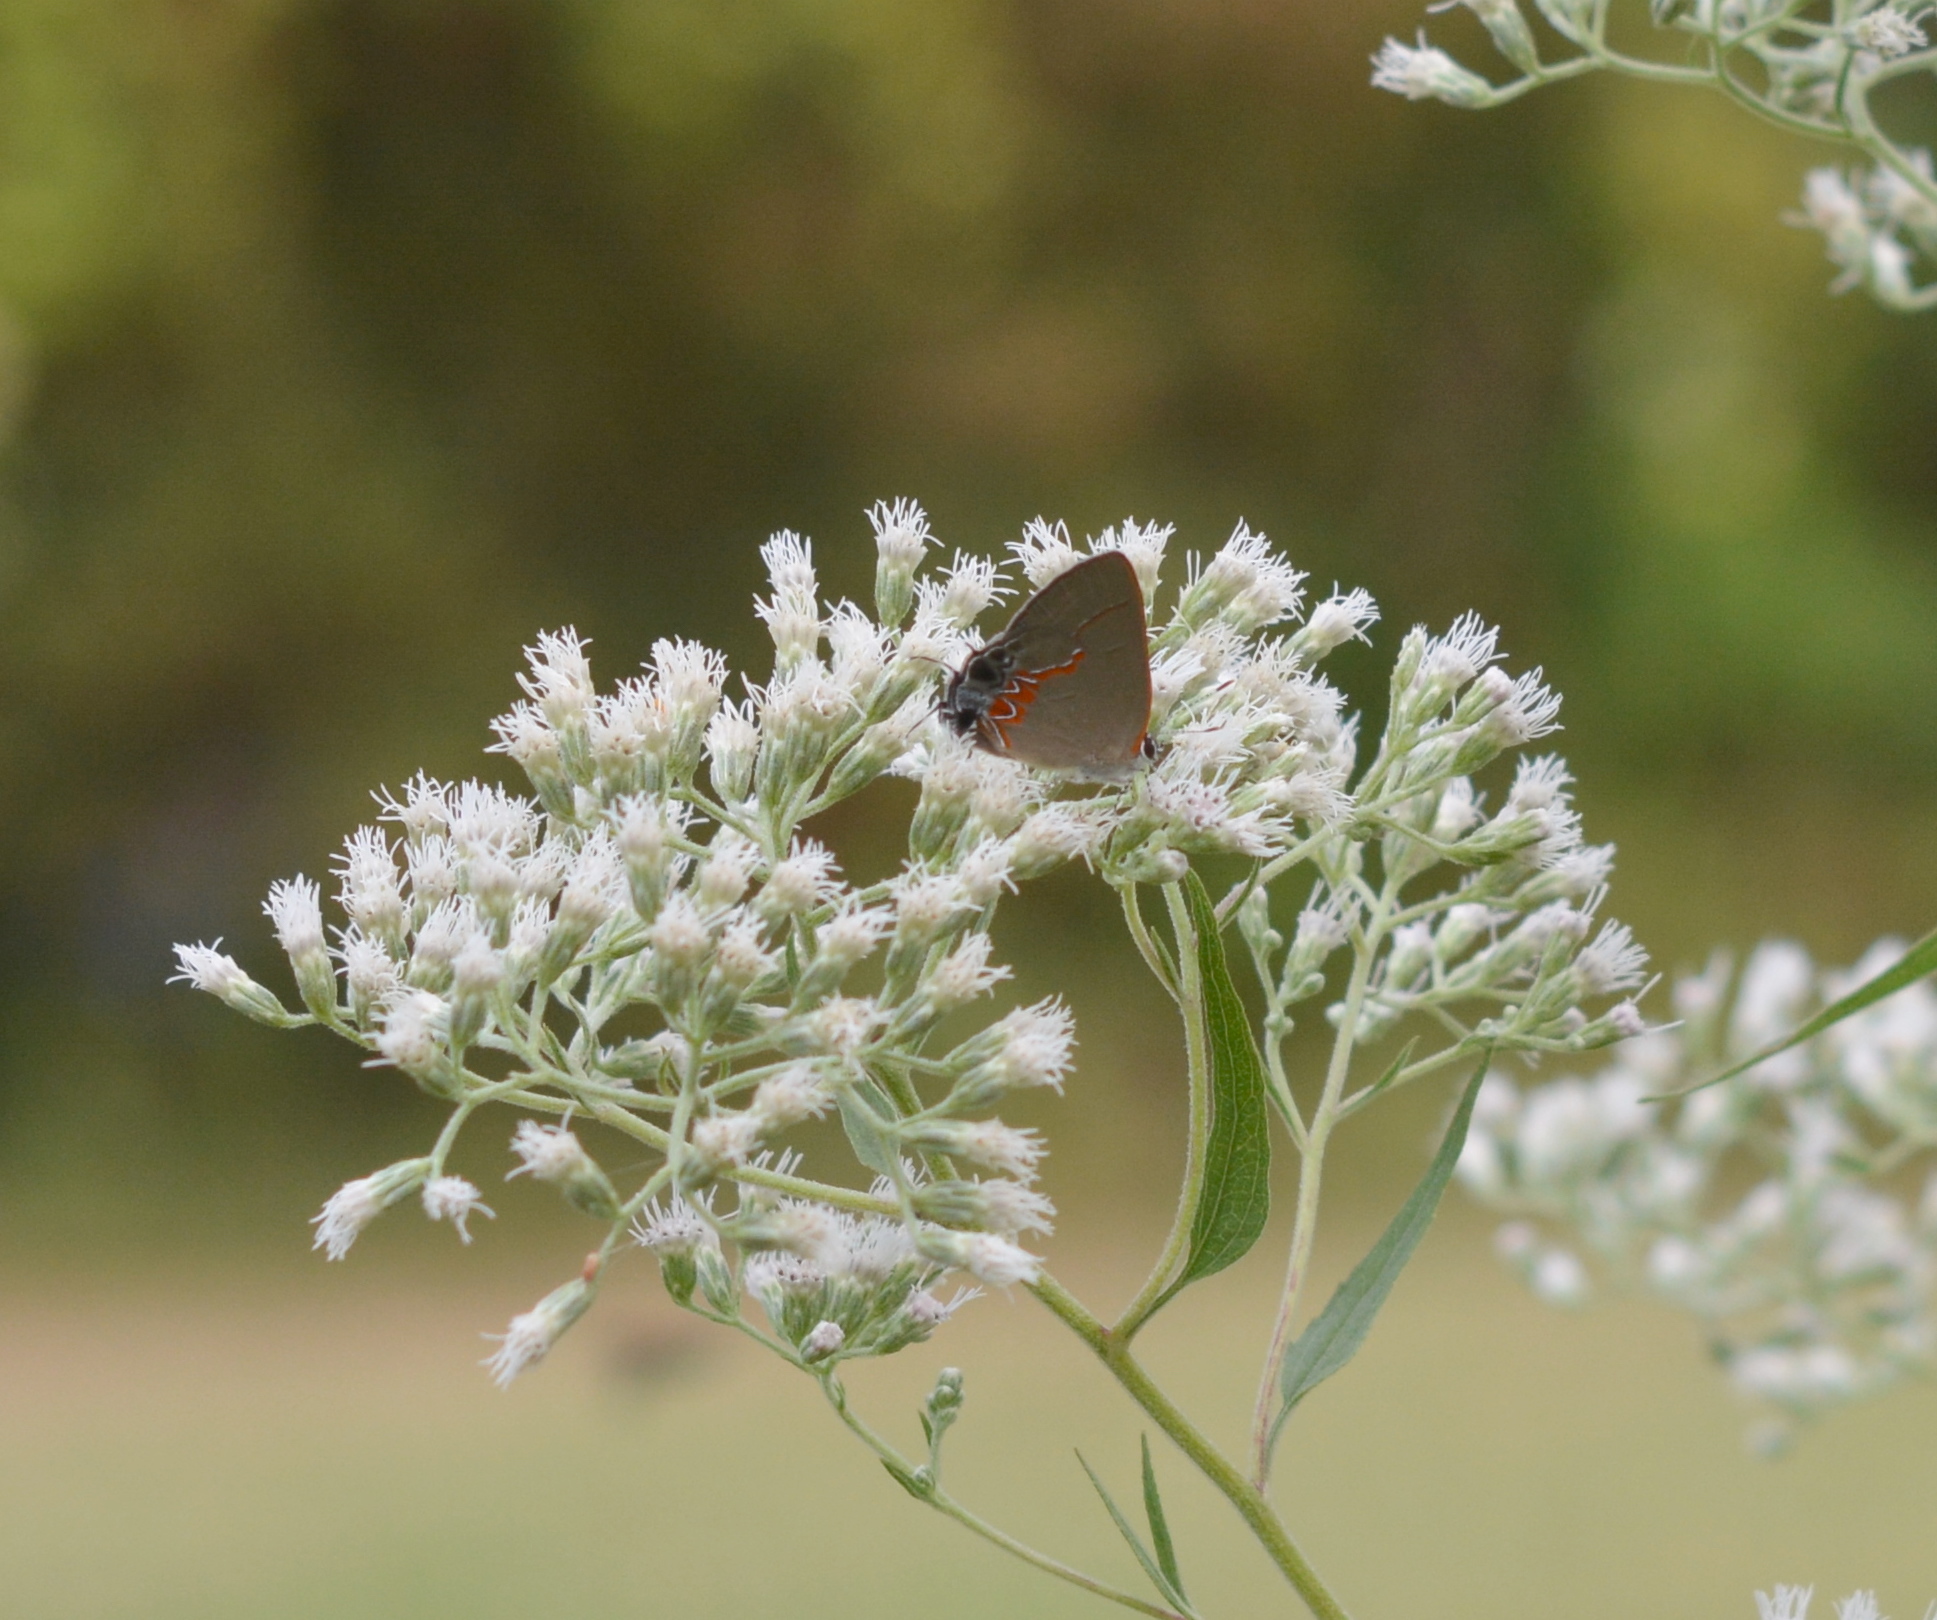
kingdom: Animalia
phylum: Arthropoda
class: Insecta
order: Lepidoptera
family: Lycaenidae
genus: Calycopis
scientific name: Calycopis cecrops
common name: Red-banded hairstreak
